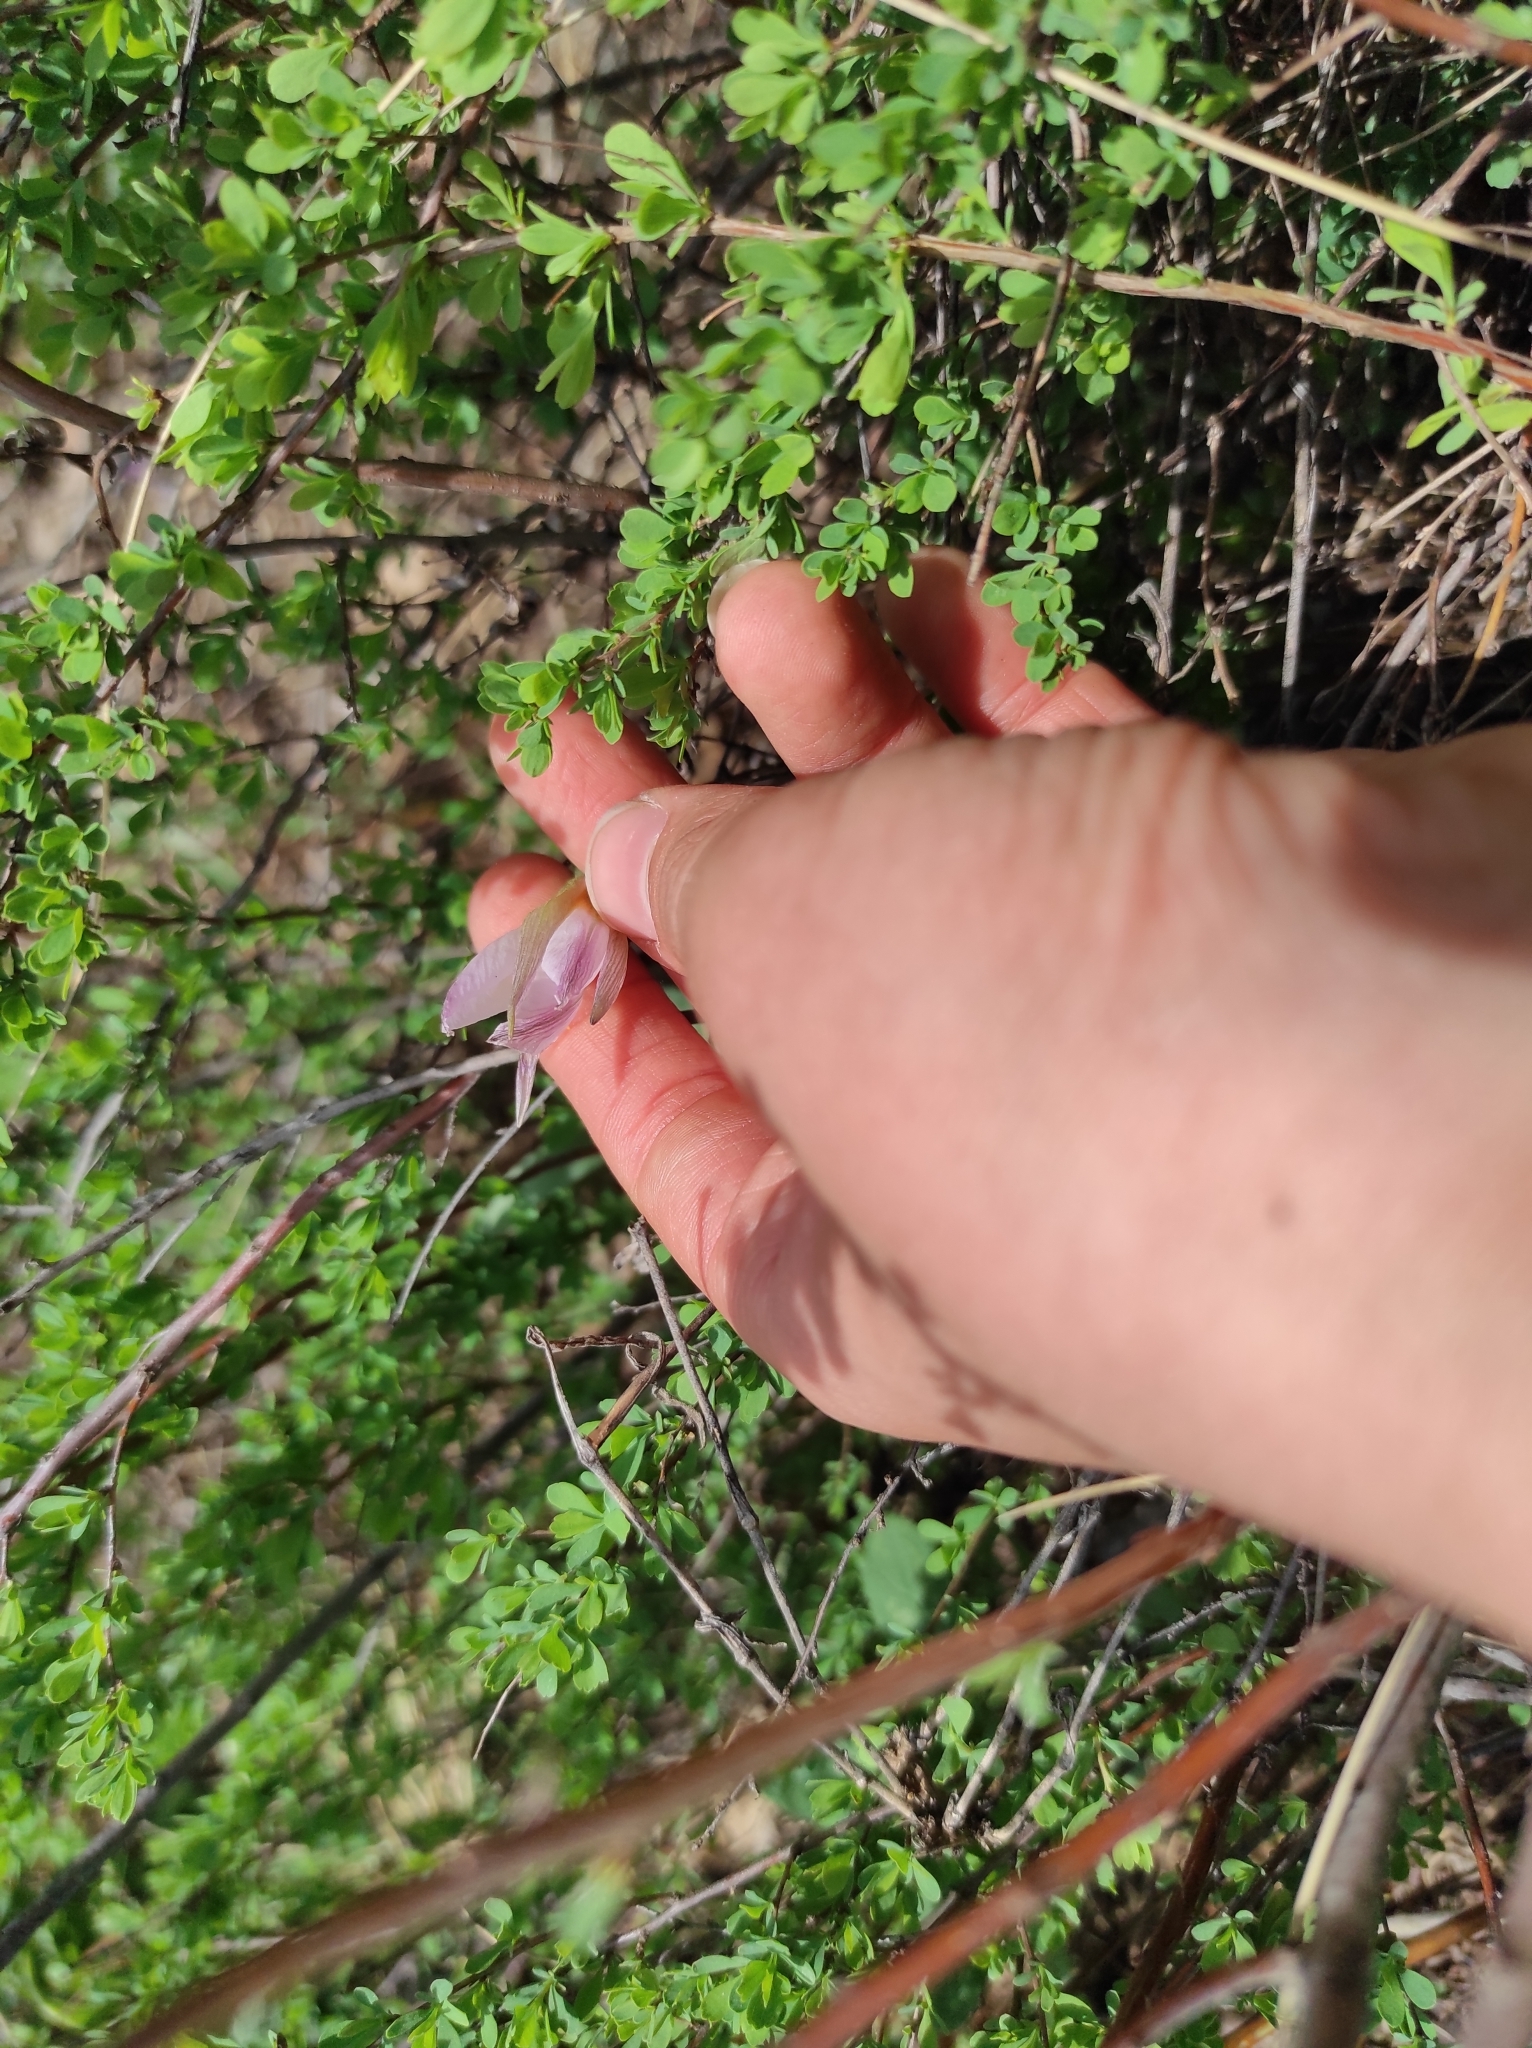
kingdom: Plantae
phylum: Tracheophyta
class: Liliopsida
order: Liliales
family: Liliaceae
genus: Tulipa
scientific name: Tulipa patens
